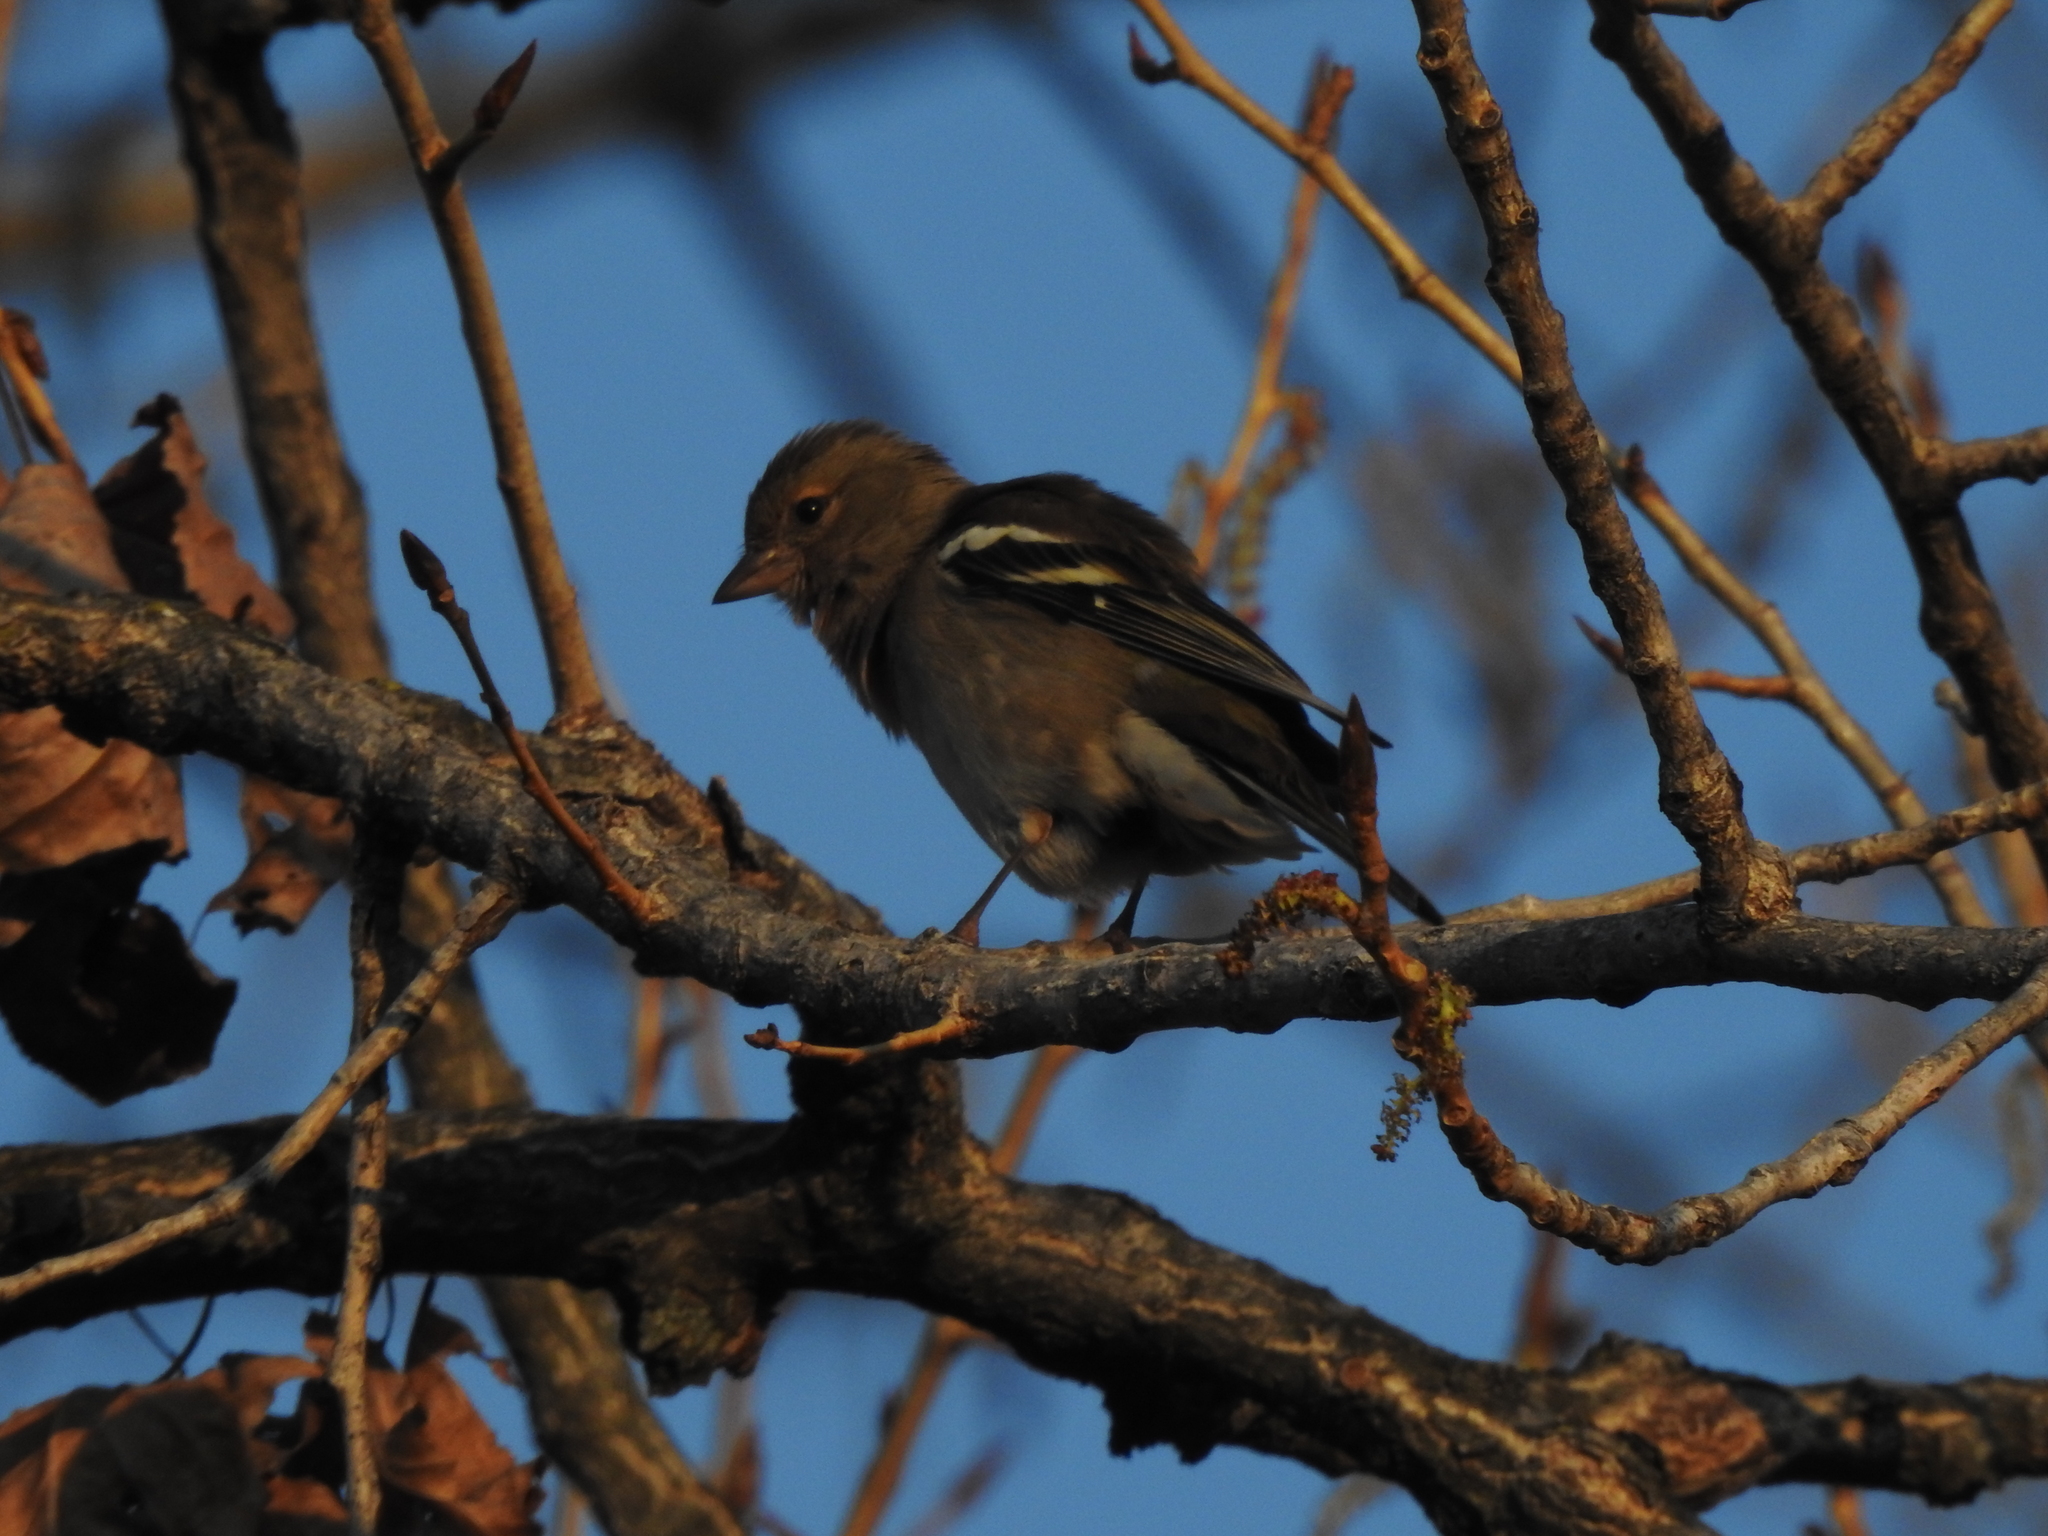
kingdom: Animalia
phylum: Chordata
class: Aves
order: Passeriformes
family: Fringillidae
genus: Fringilla
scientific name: Fringilla coelebs
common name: Common chaffinch
